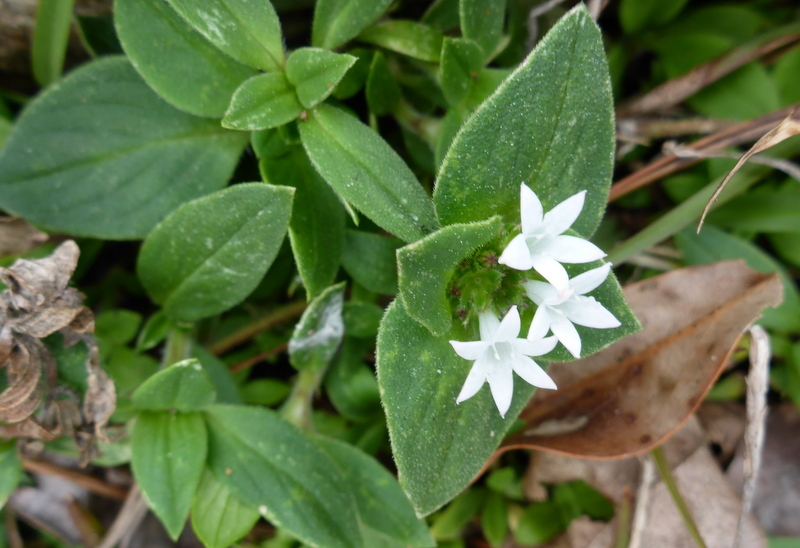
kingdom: Plantae
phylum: Tracheophyta
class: Magnoliopsida
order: Gentianales
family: Rubiaceae
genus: Richardia
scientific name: Richardia scabra
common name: Rough mexican clover
